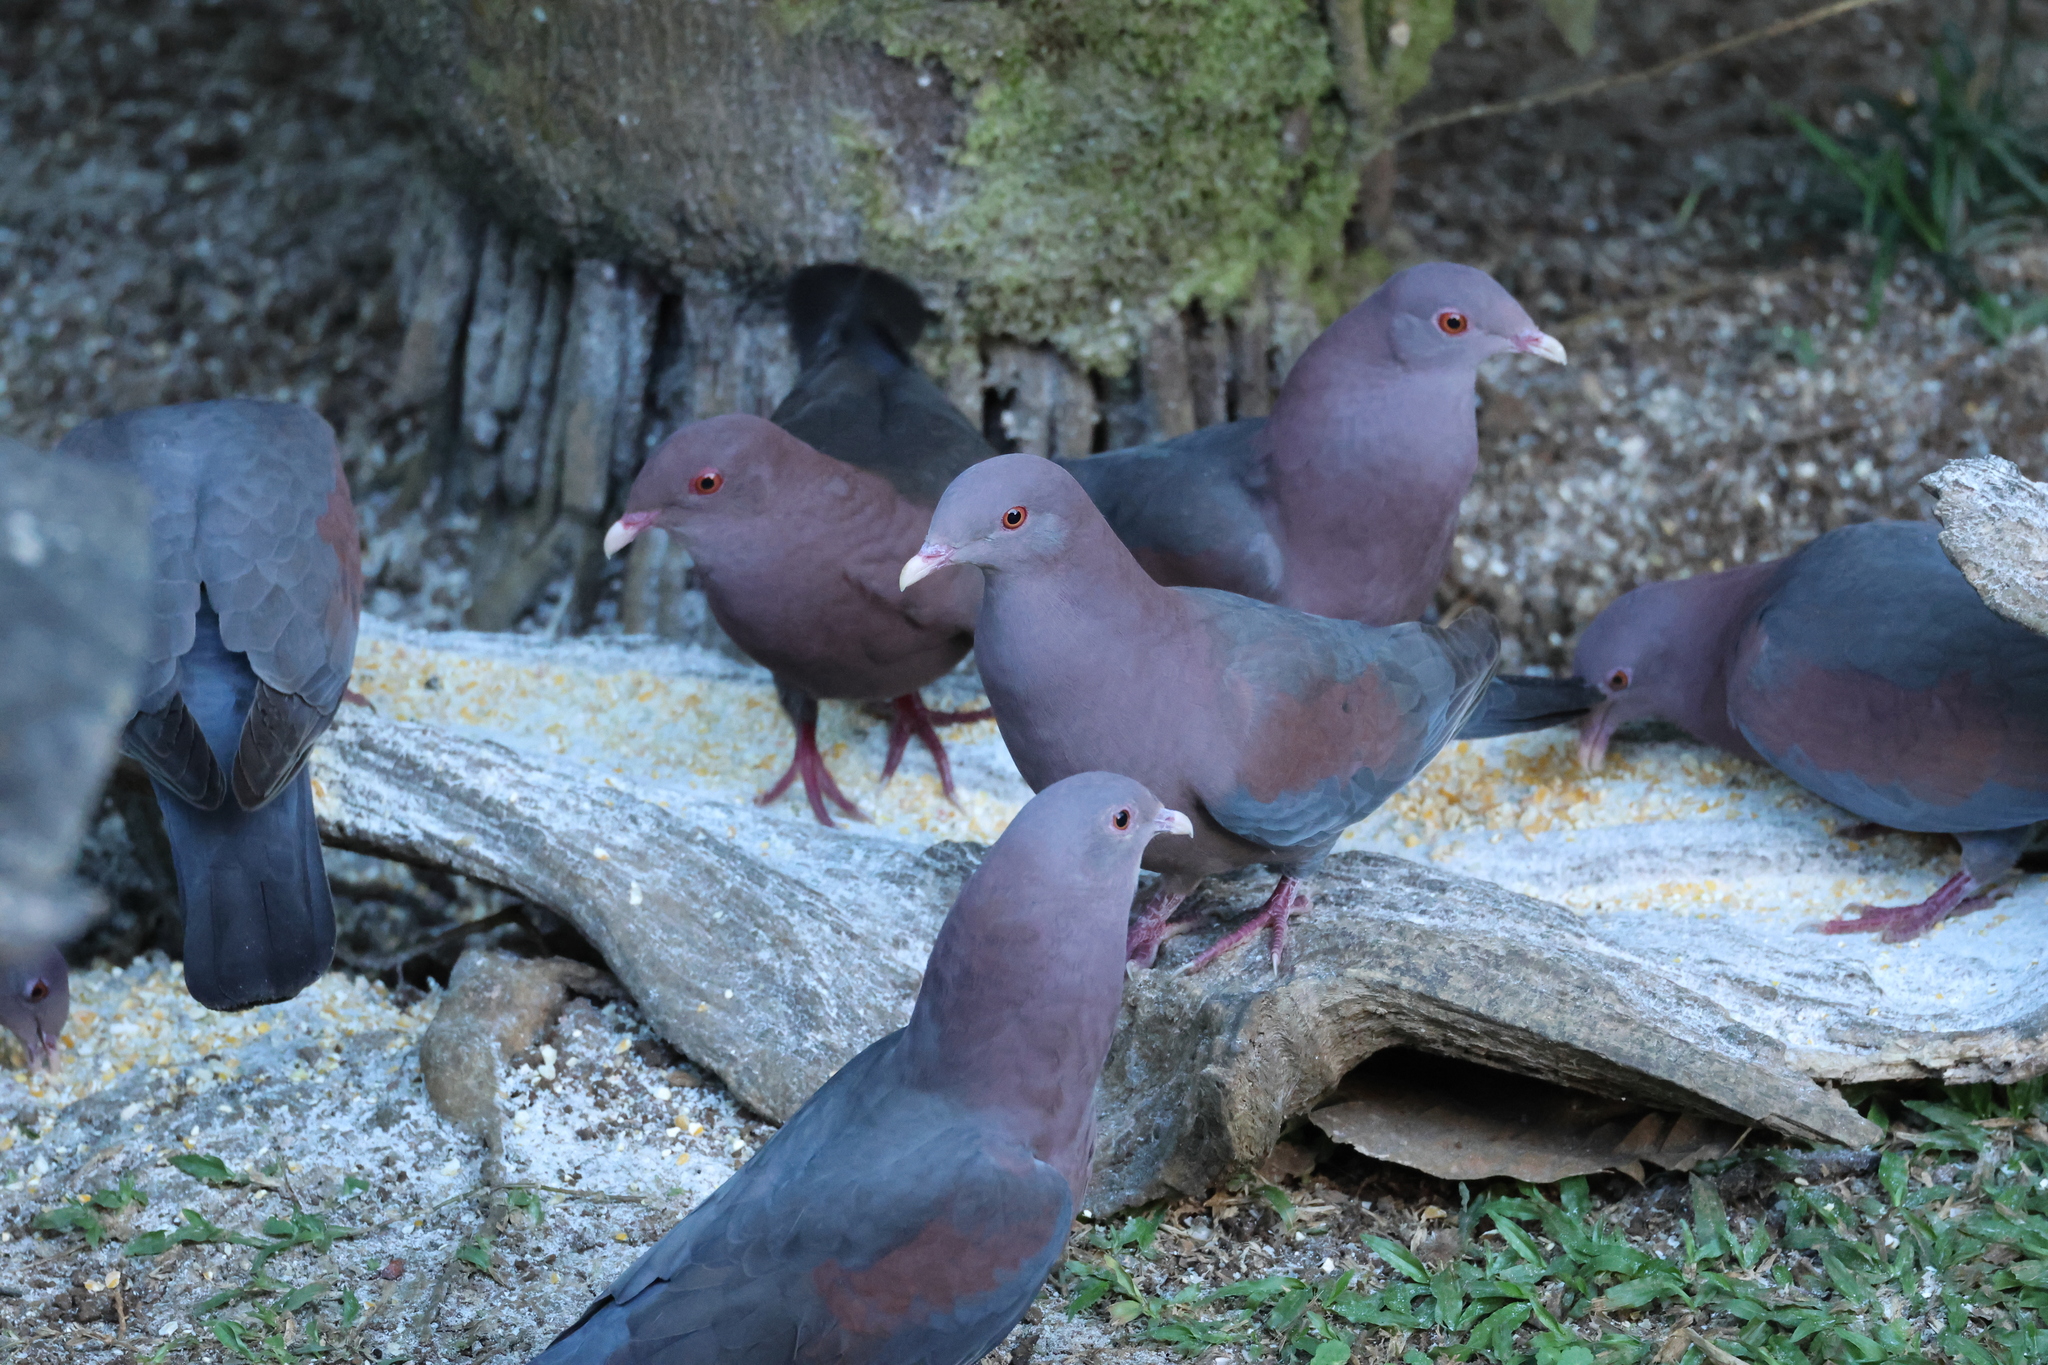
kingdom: Animalia
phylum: Chordata
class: Aves
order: Columbiformes
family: Columbidae
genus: Patagioenas
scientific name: Patagioenas flavirostris
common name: Red-billed pigeon
